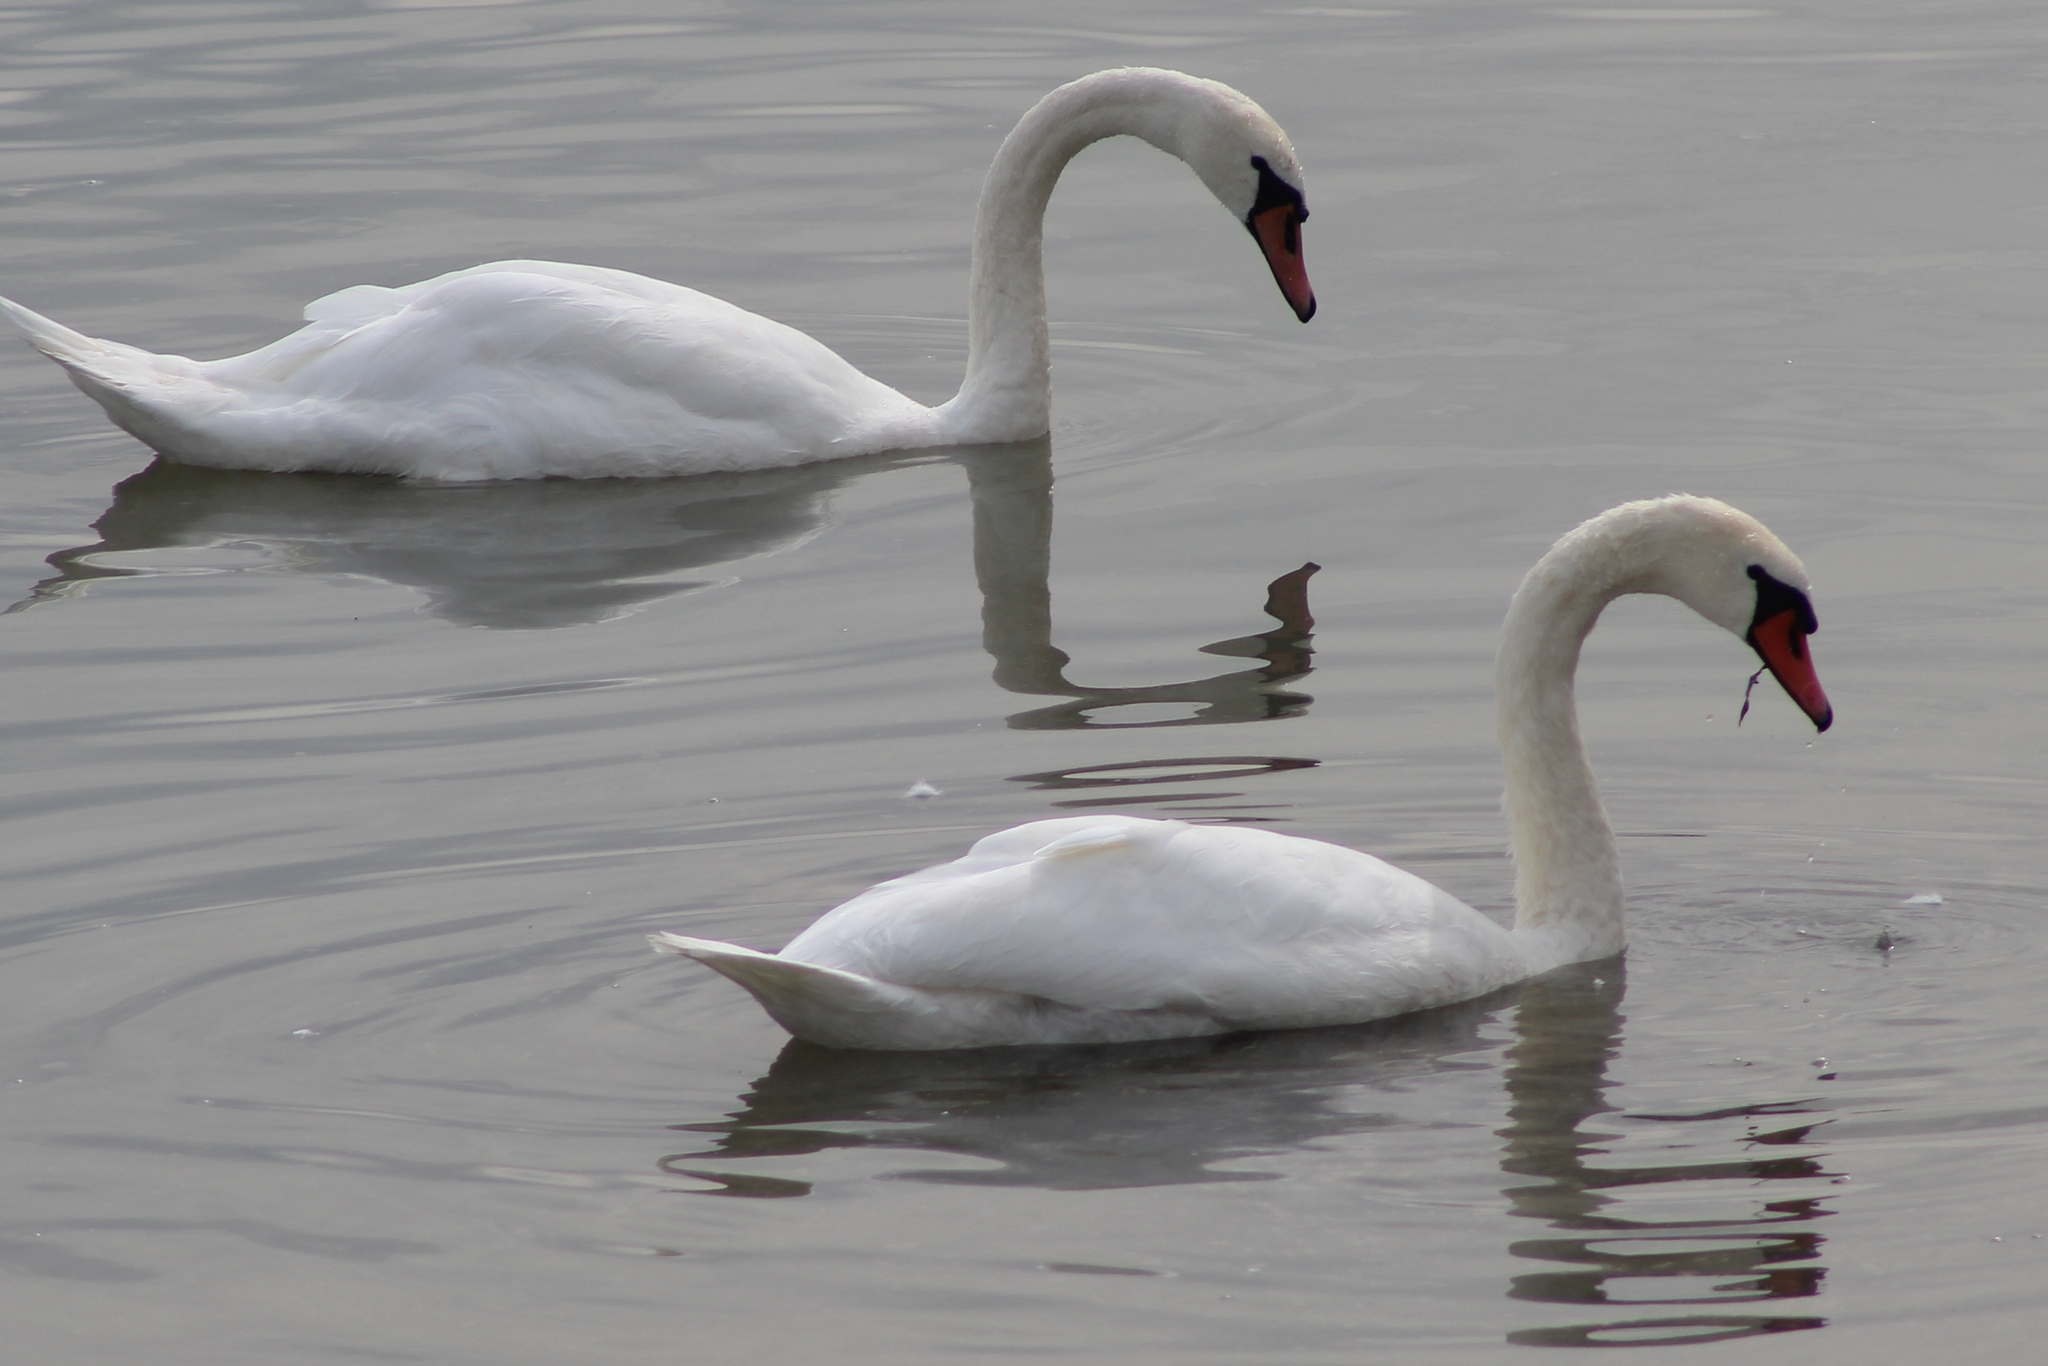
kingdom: Animalia
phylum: Chordata
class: Aves
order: Anseriformes
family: Anatidae
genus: Cygnus
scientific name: Cygnus olor
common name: Mute swan
